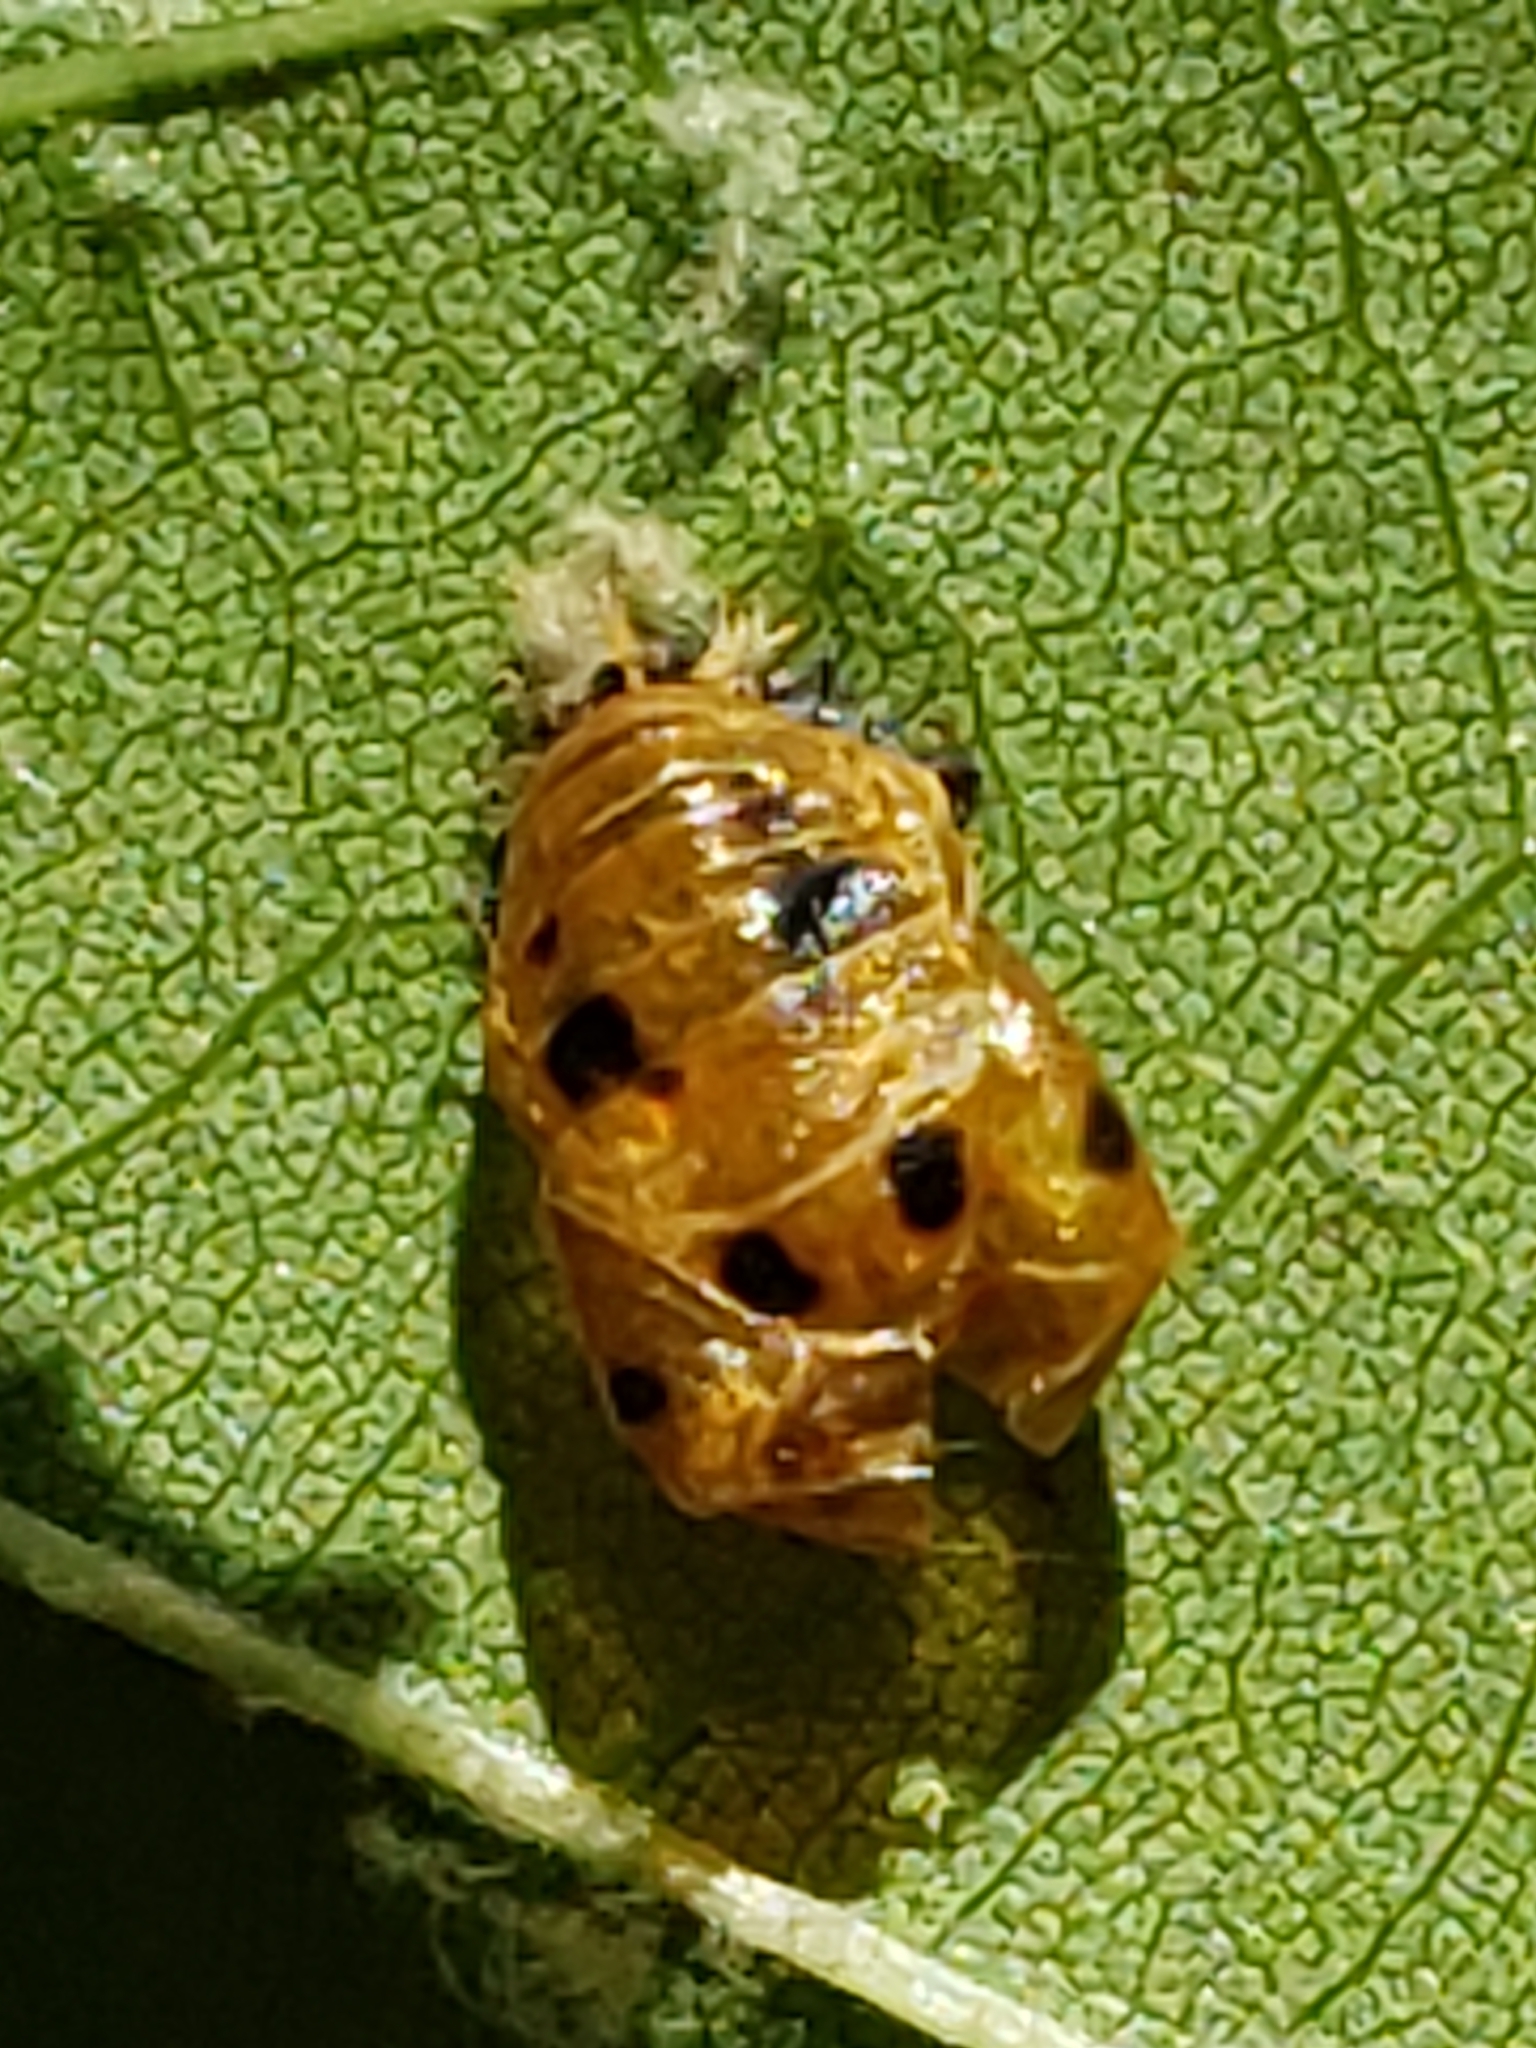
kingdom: Animalia
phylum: Arthropoda
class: Insecta
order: Coleoptera
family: Coccinellidae
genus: Harmonia
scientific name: Harmonia axyridis
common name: Harlequin ladybird
